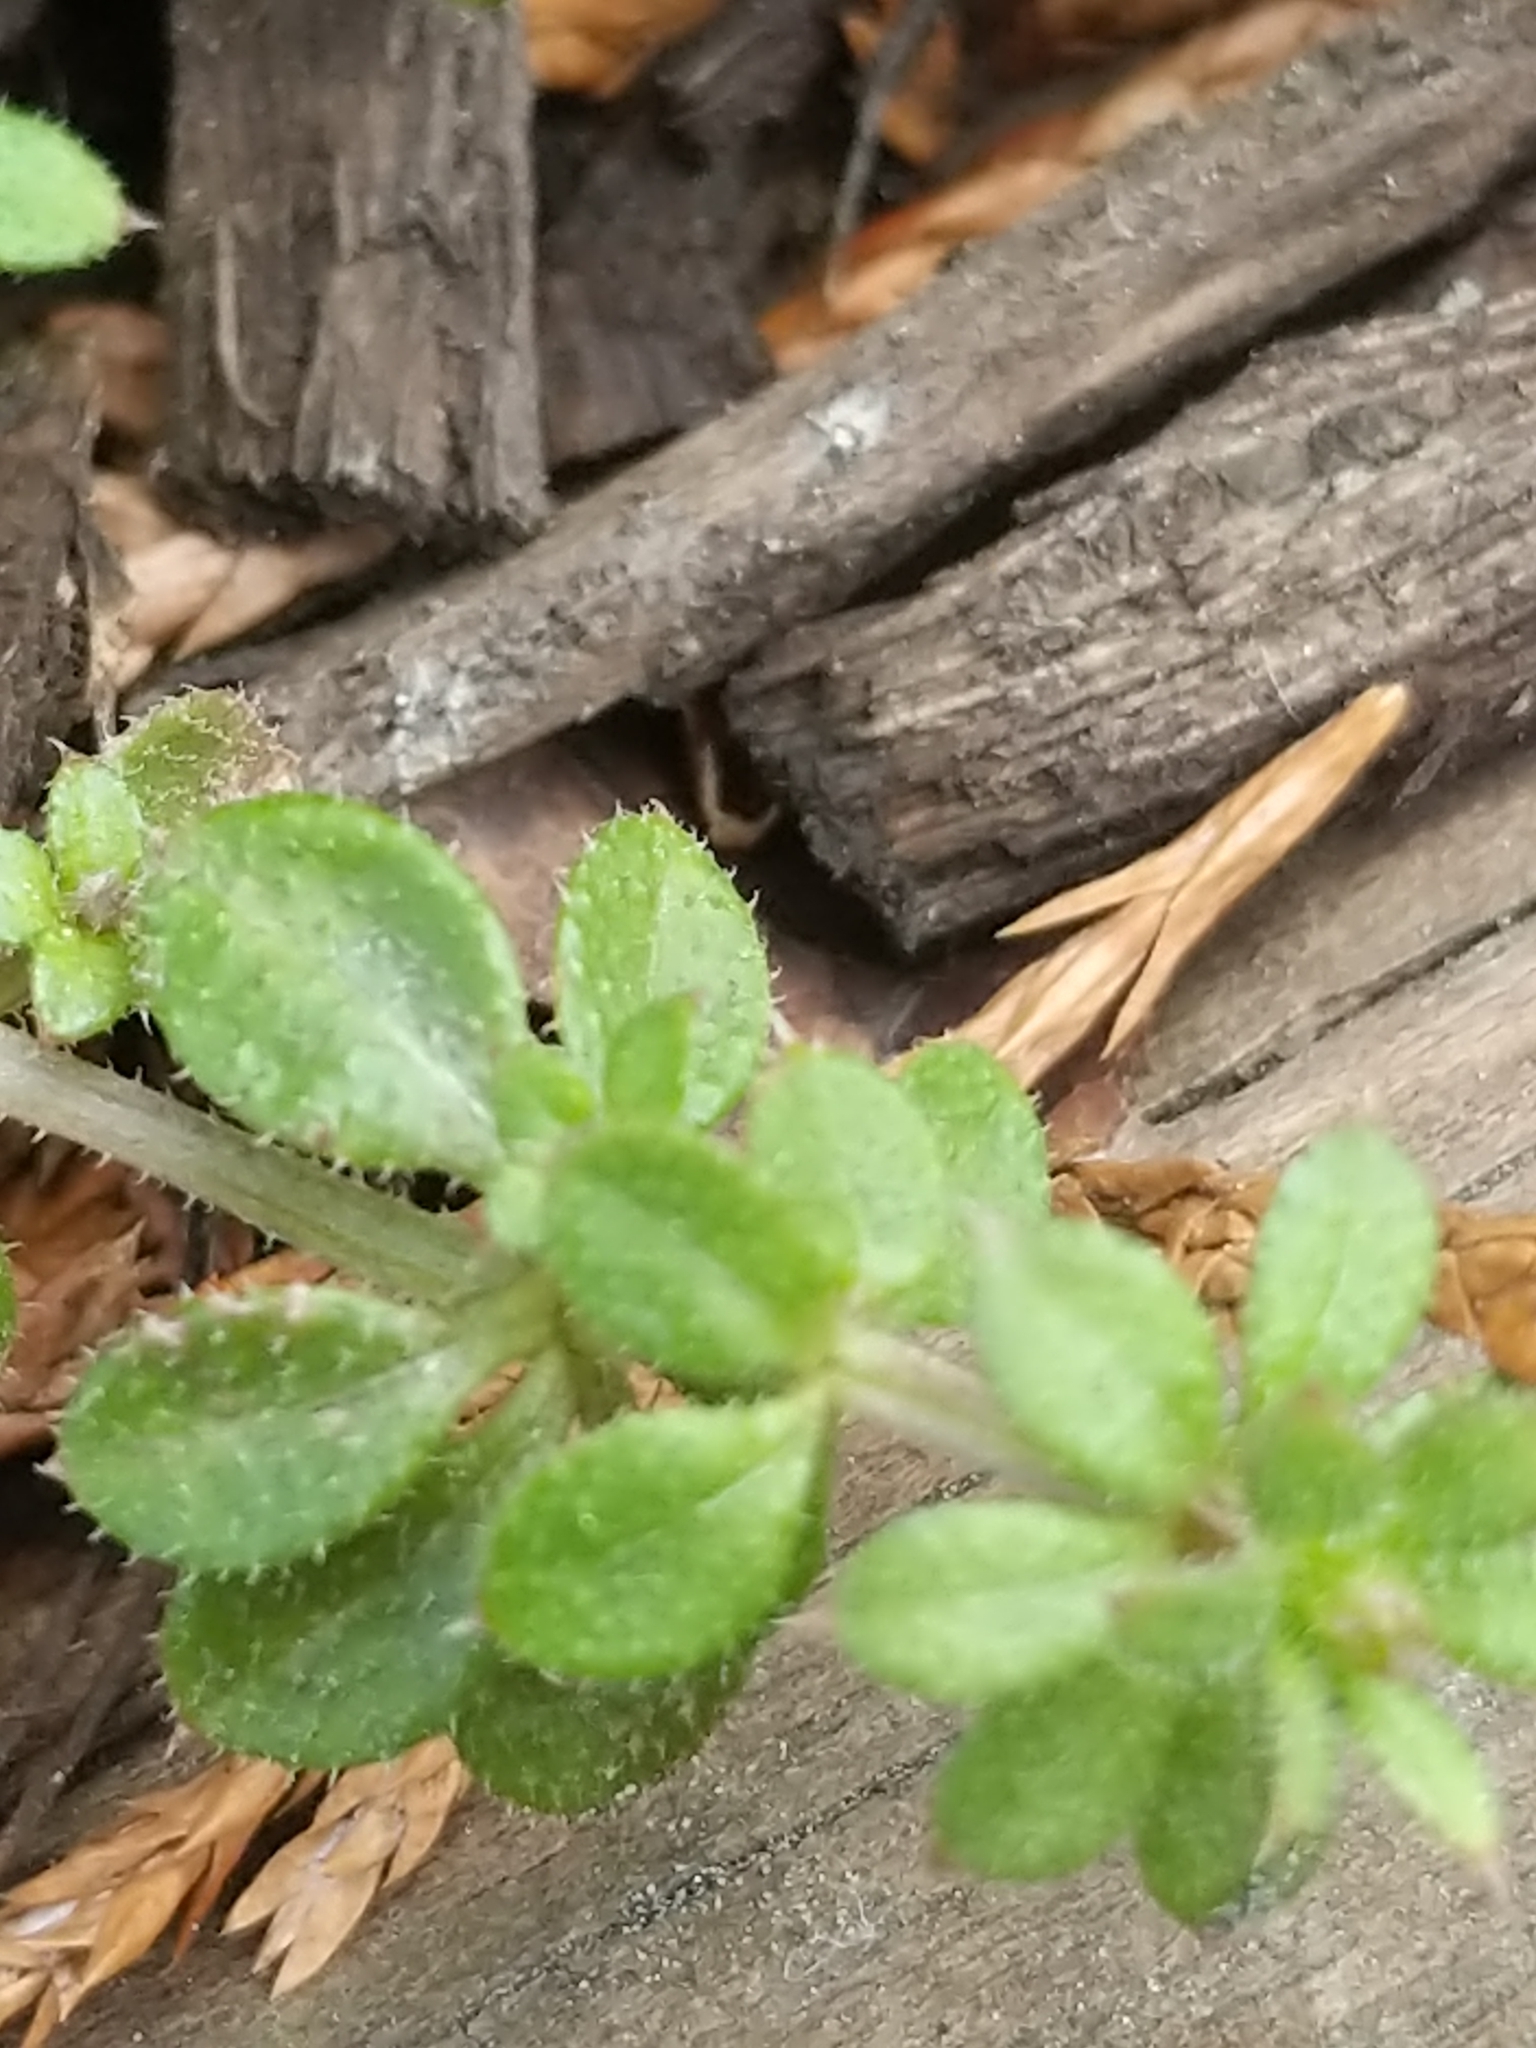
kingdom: Plantae
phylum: Tracheophyta
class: Magnoliopsida
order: Gentianales
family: Rubiaceae
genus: Galium
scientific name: Galium aparine
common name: Cleavers
